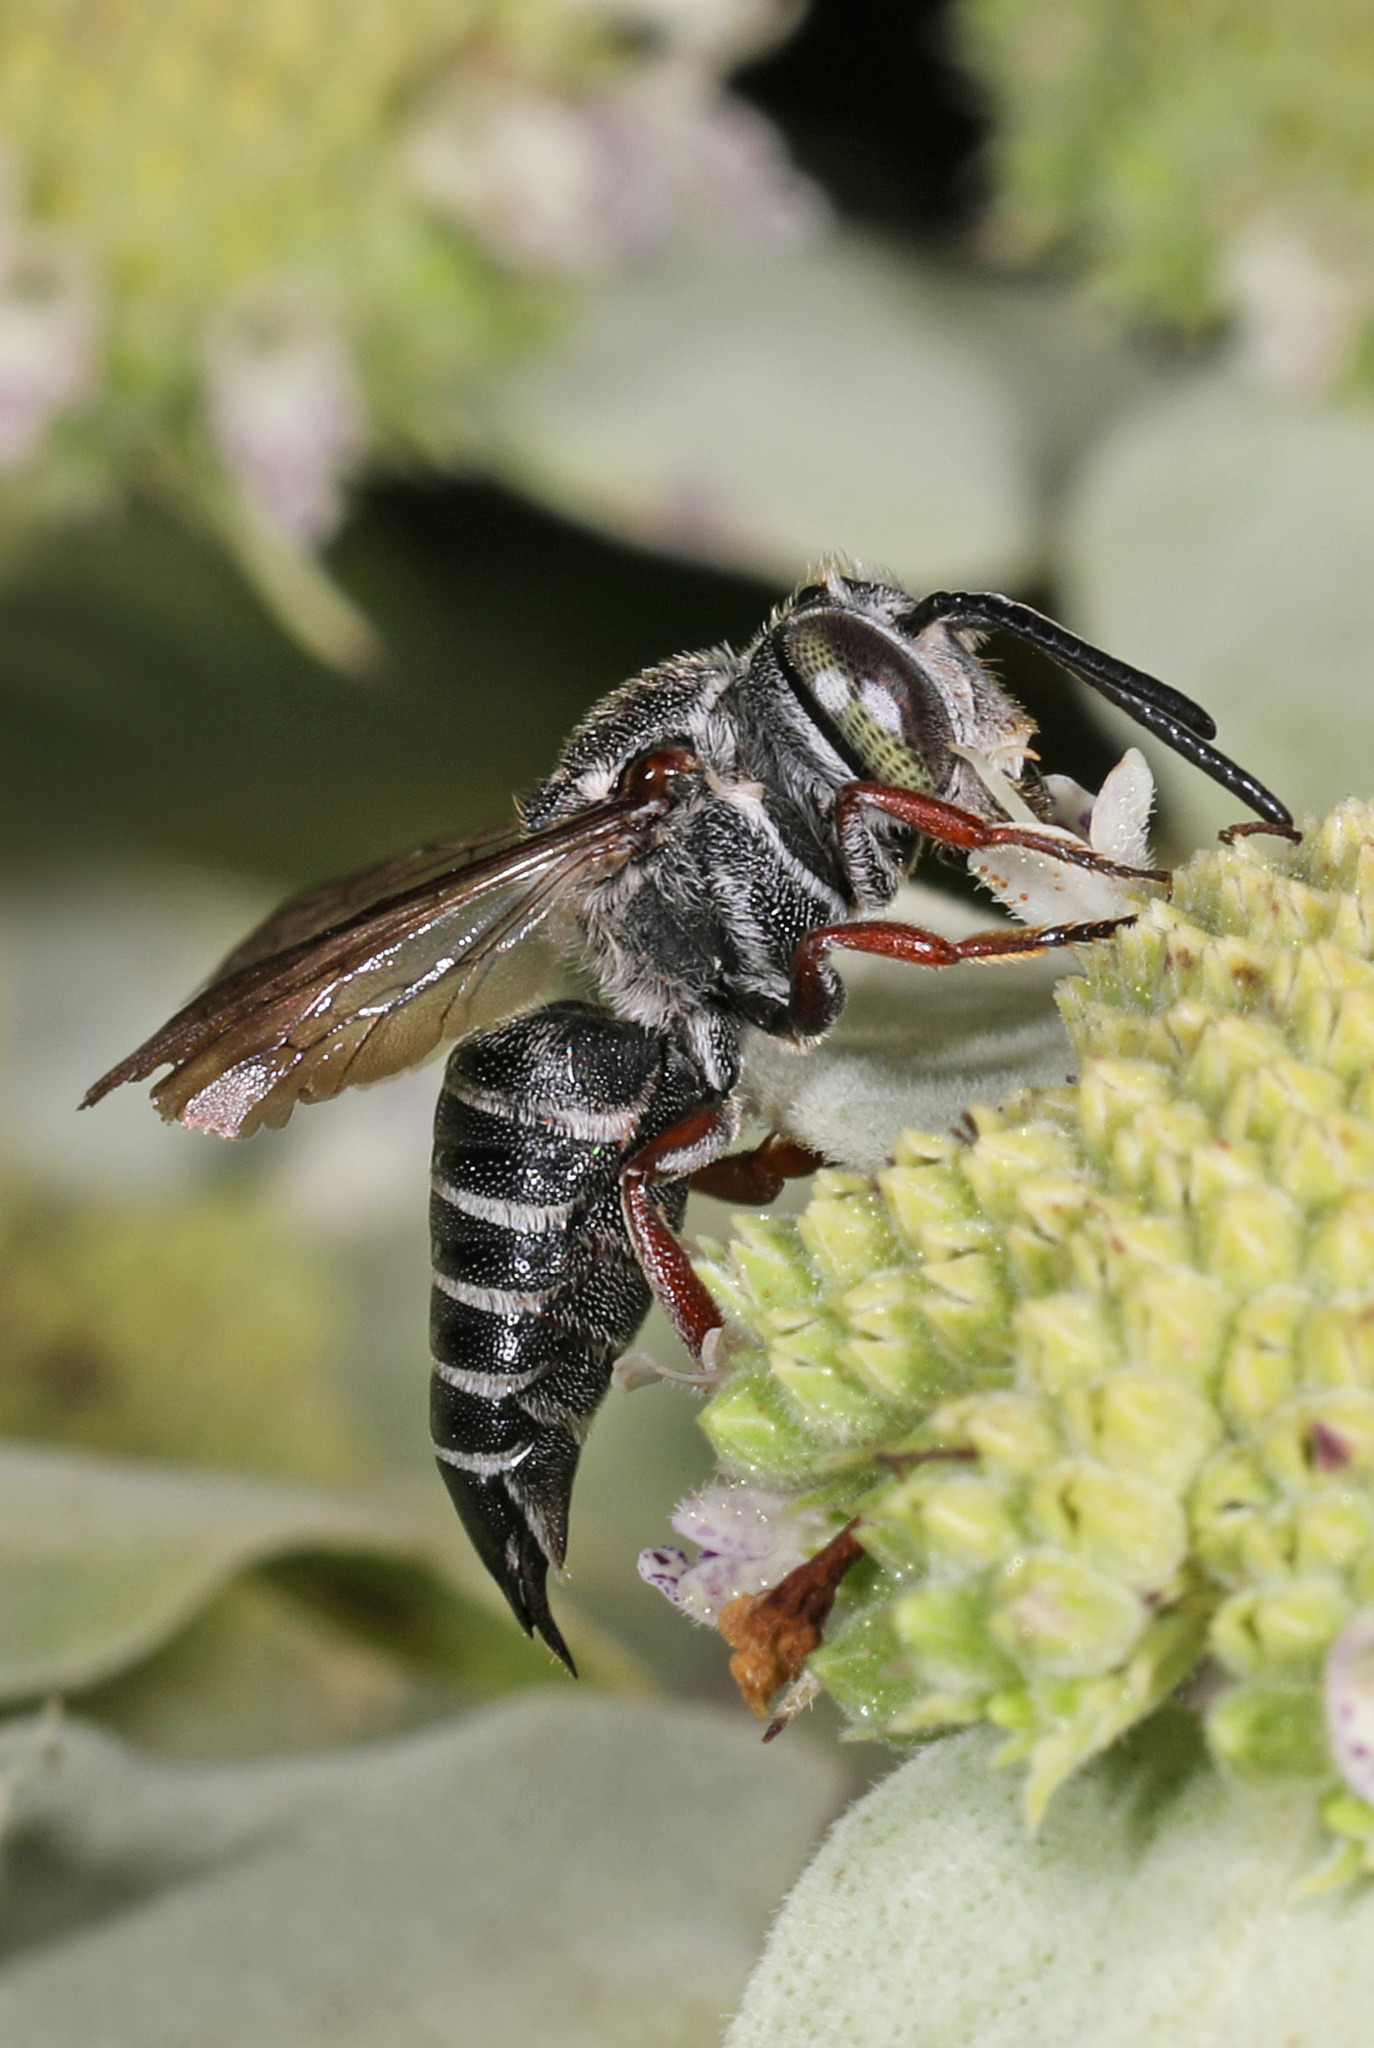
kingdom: Animalia
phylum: Arthropoda
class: Insecta
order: Hymenoptera
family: Megachilidae
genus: Coelioxys
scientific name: Coelioxys sayi
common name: Say's cuckoo leaf-cutter bee
